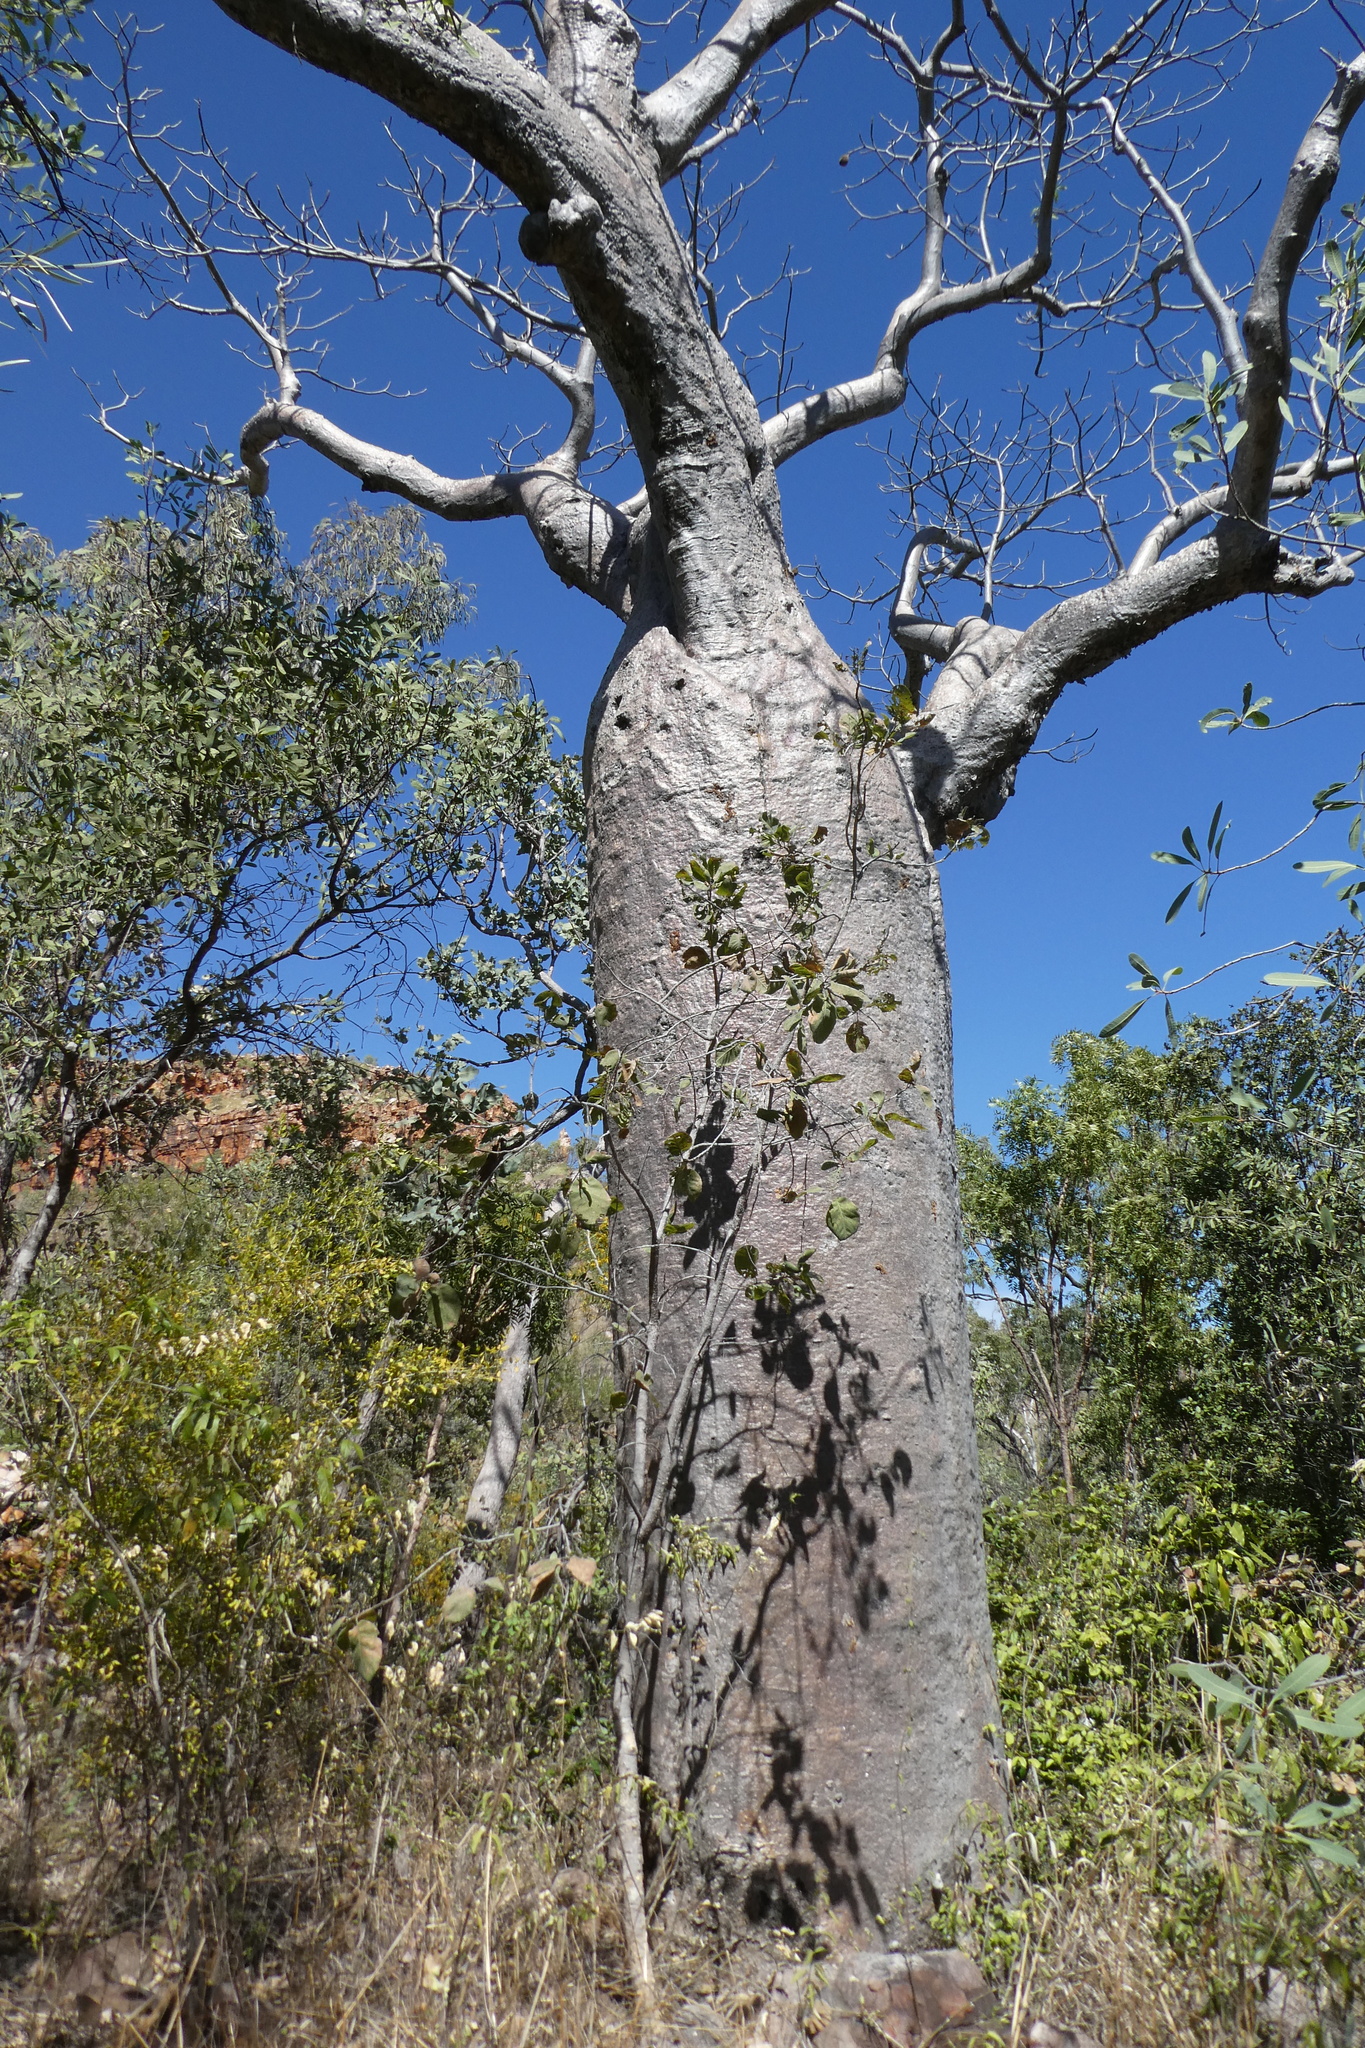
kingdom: Plantae
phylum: Tracheophyta
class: Magnoliopsida
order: Malvales
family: Malvaceae
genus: Adansonia
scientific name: Adansonia gregorii
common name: Australian baobab
